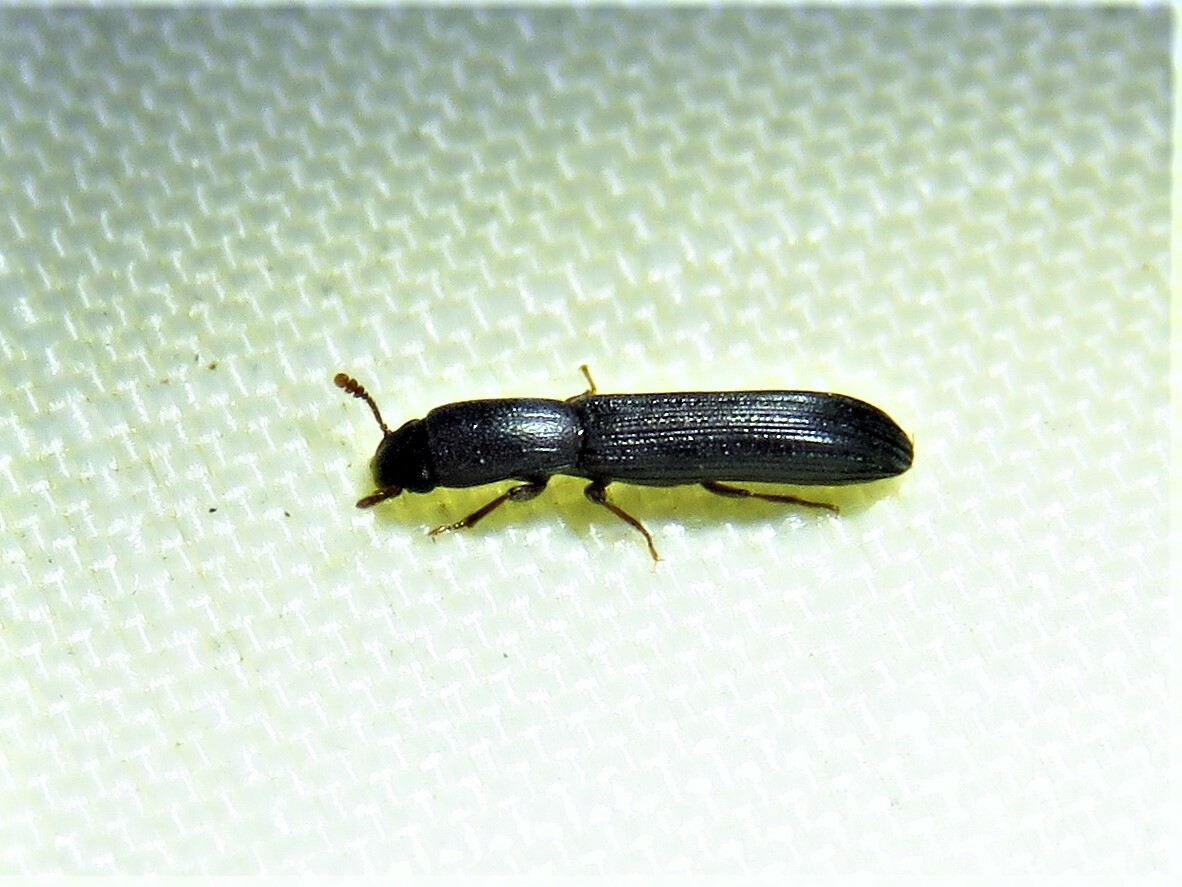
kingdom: Animalia
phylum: Arthropoda
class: Insecta
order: Coleoptera
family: Zopheridae
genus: Colydium
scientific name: Colydium lineola
